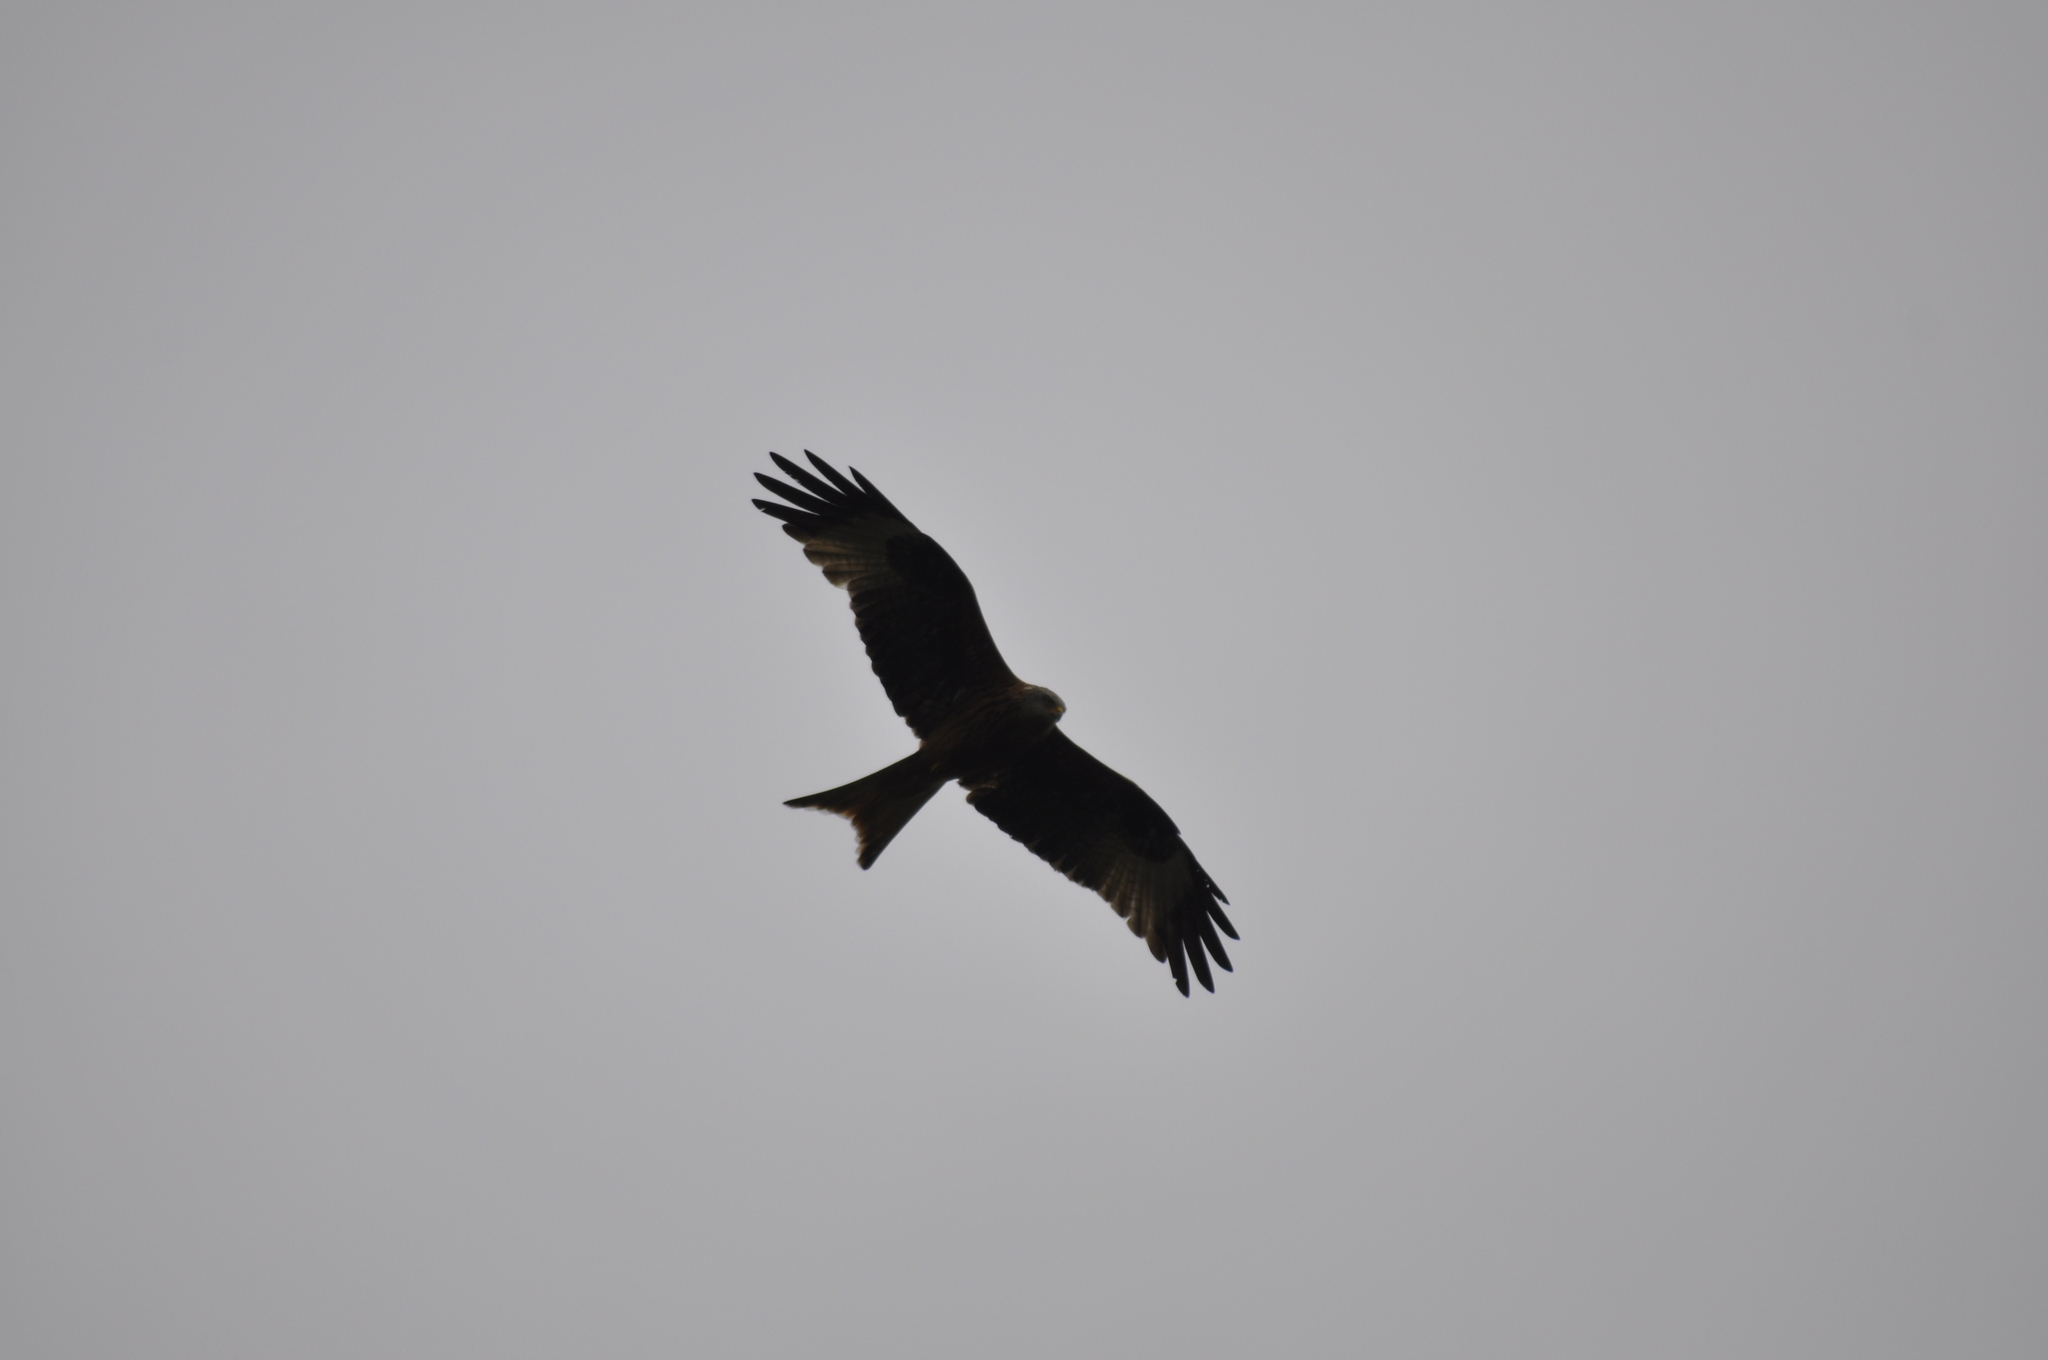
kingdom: Animalia
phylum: Chordata
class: Aves
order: Accipitriformes
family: Accipitridae
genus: Milvus
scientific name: Milvus milvus
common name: Red kite
